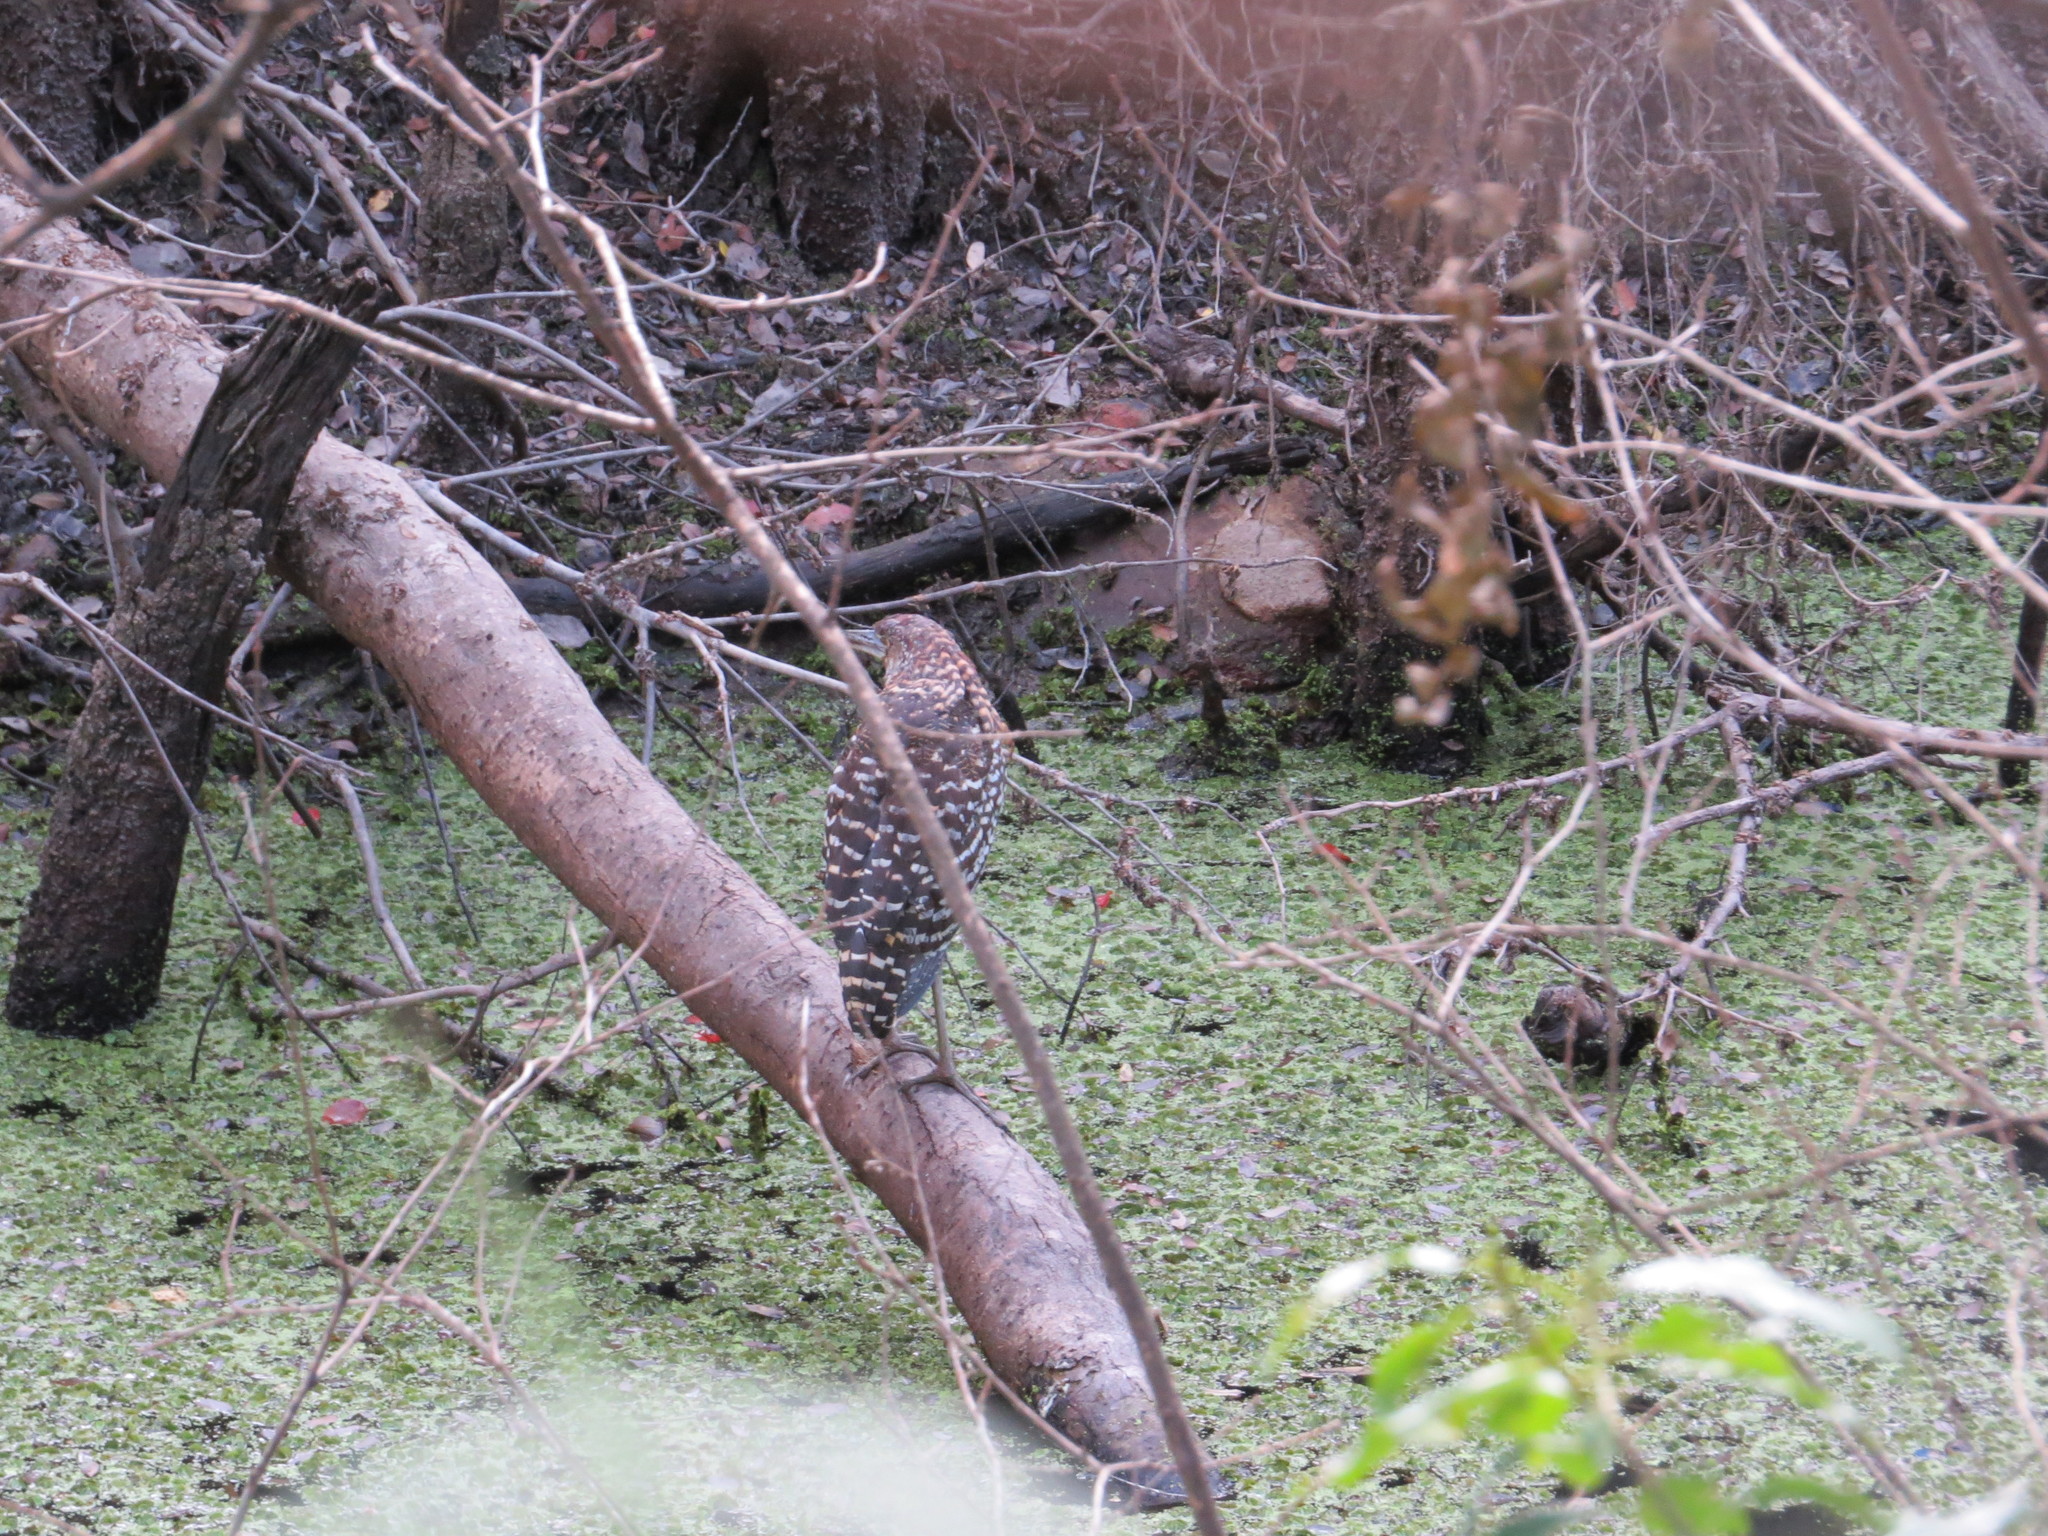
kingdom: Animalia
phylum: Chordata
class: Aves
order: Pelecaniformes
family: Ardeidae
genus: Tigrisoma
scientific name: Tigrisoma lineatum
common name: Rufescent tiger-heron
